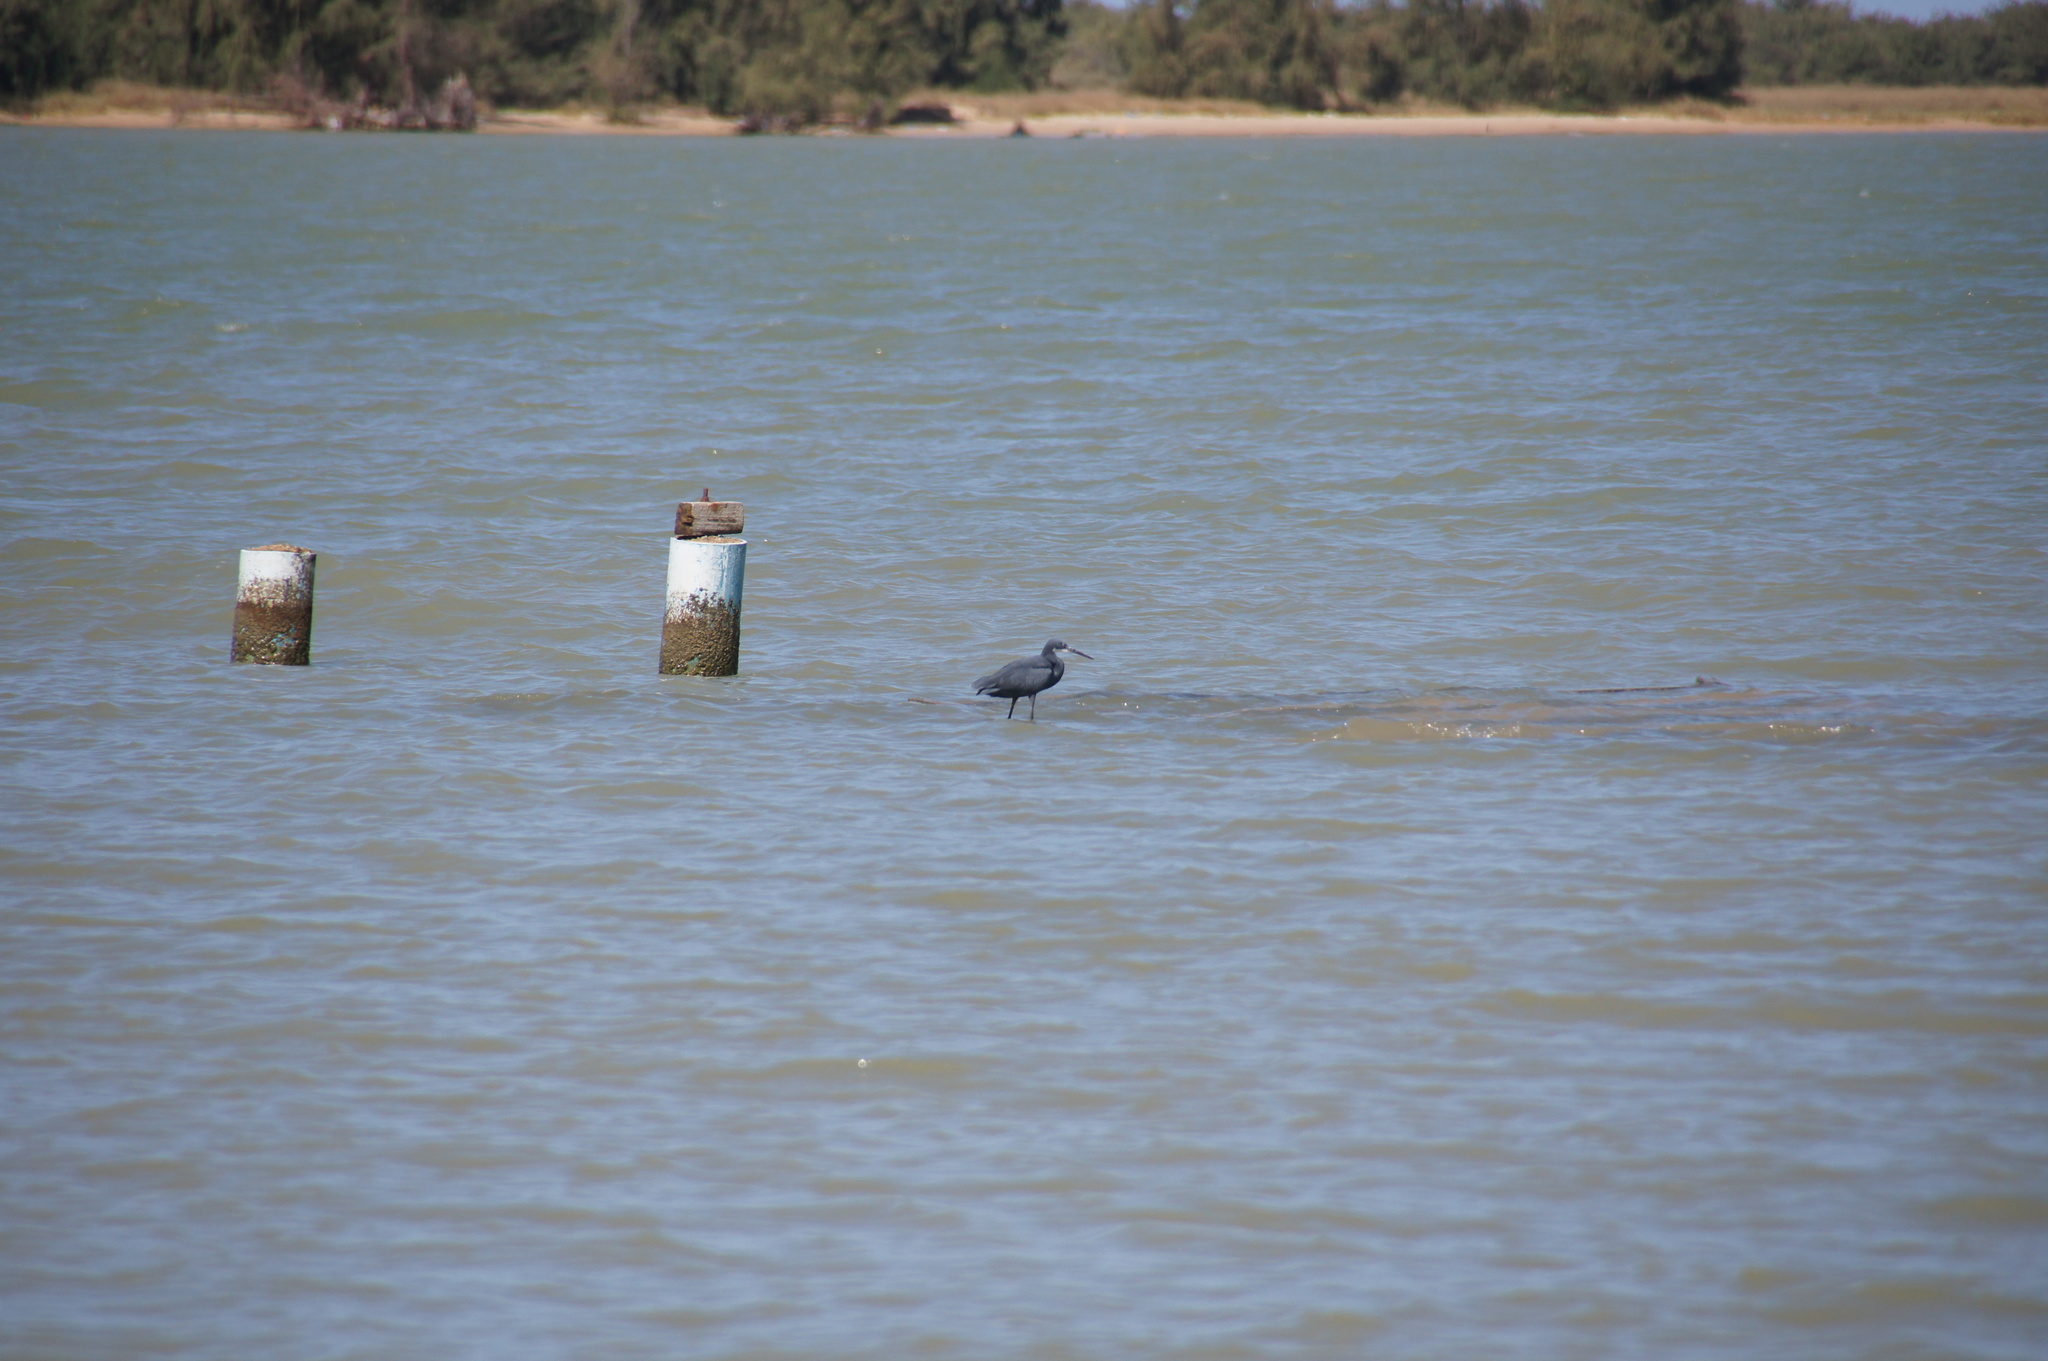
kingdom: Animalia
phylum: Chordata
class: Aves
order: Pelecaniformes
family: Ardeidae
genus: Egretta
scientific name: Egretta gularis
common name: Western reef-heron
